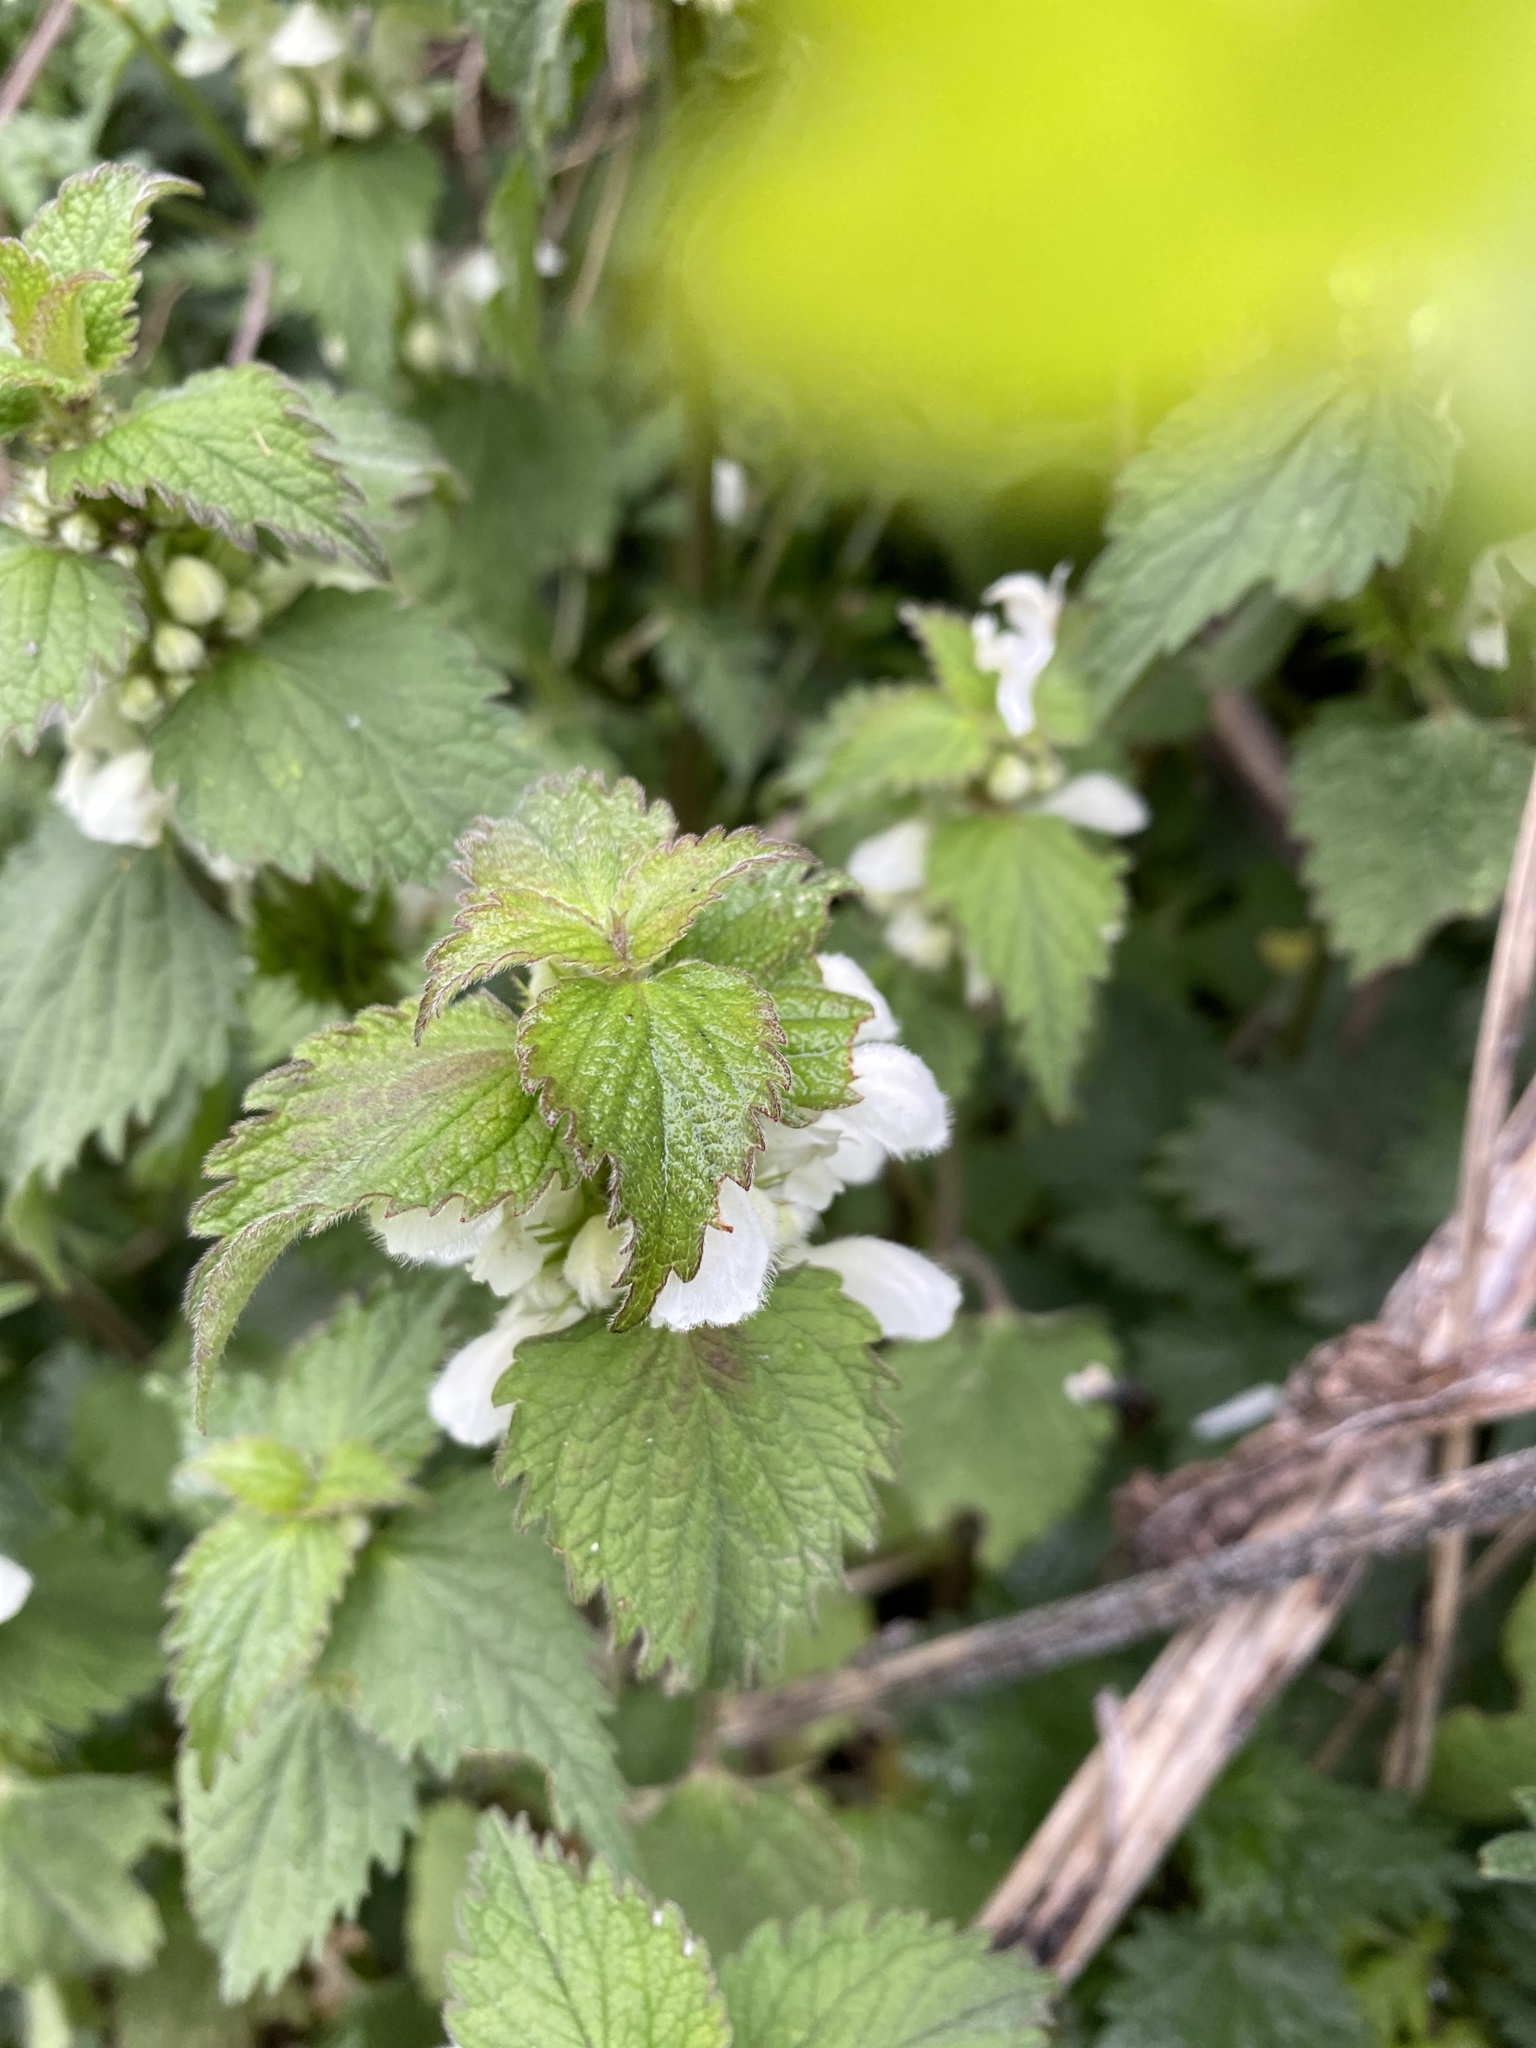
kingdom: Plantae
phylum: Tracheophyta
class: Magnoliopsida
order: Lamiales
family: Lamiaceae
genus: Lamium
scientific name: Lamium album
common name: White dead-nettle
